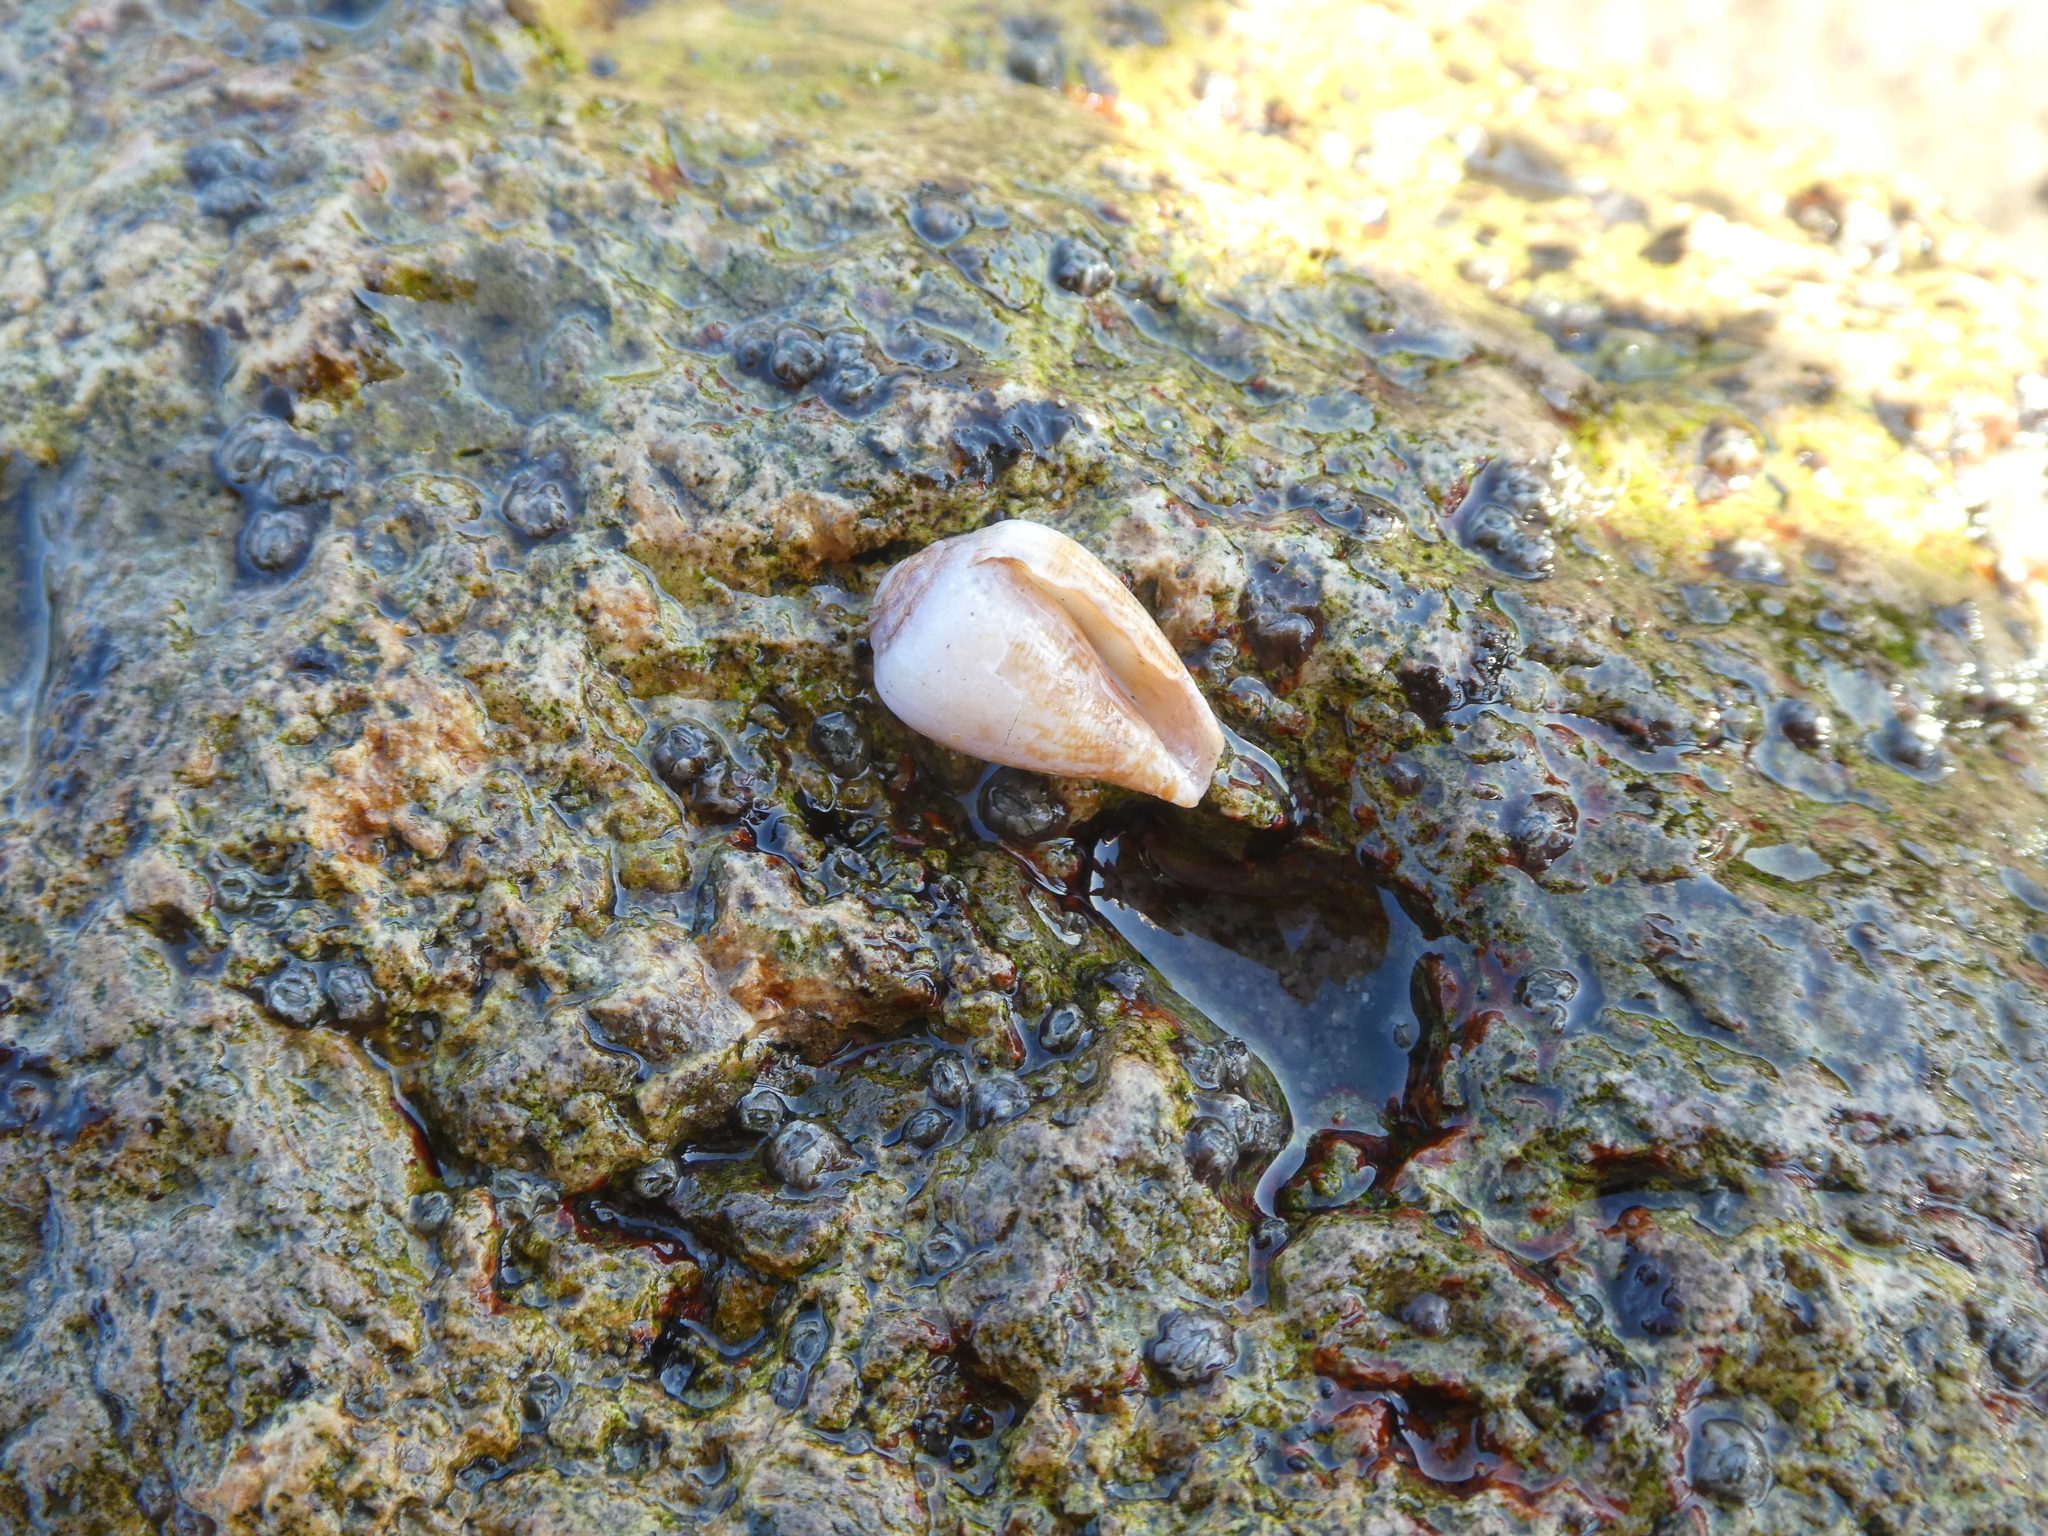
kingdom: Animalia
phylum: Mollusca
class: Gastropoda
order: Neogastropoda
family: Conidae
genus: Californiconus
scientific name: Californiconus californicus
